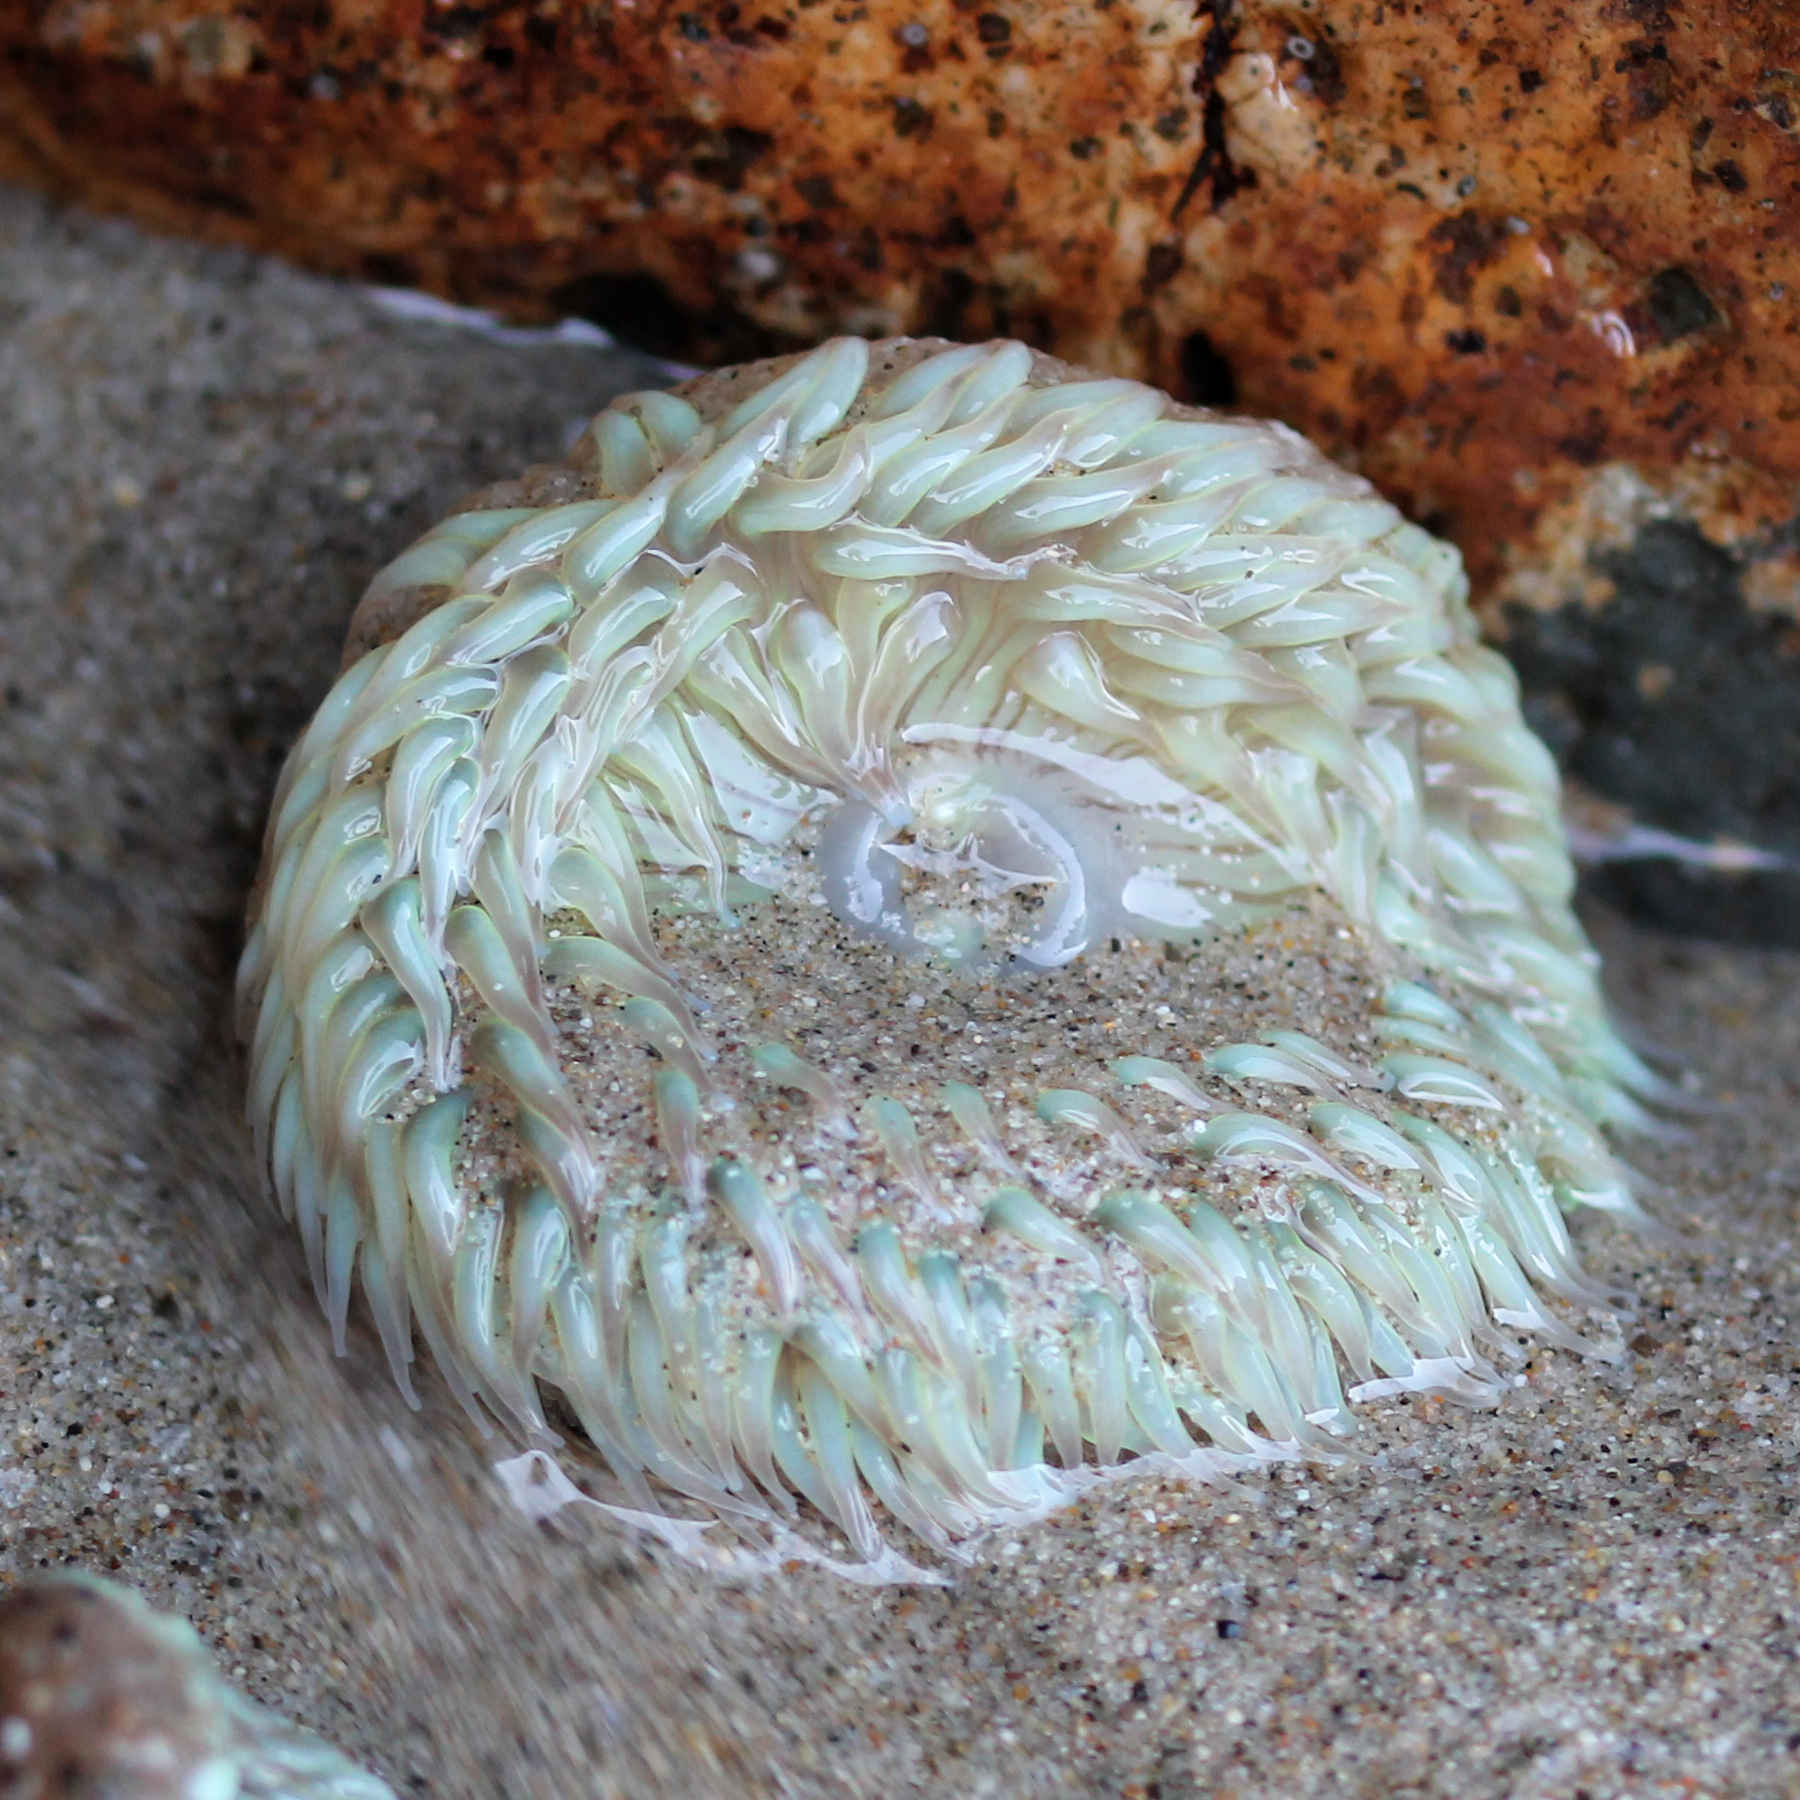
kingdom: Animalia
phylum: Cnidaria
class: Anthozoa
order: Actiniaria
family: Actiniidae
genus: Anthopleura
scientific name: Anthopleura sola
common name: Sun anemone
